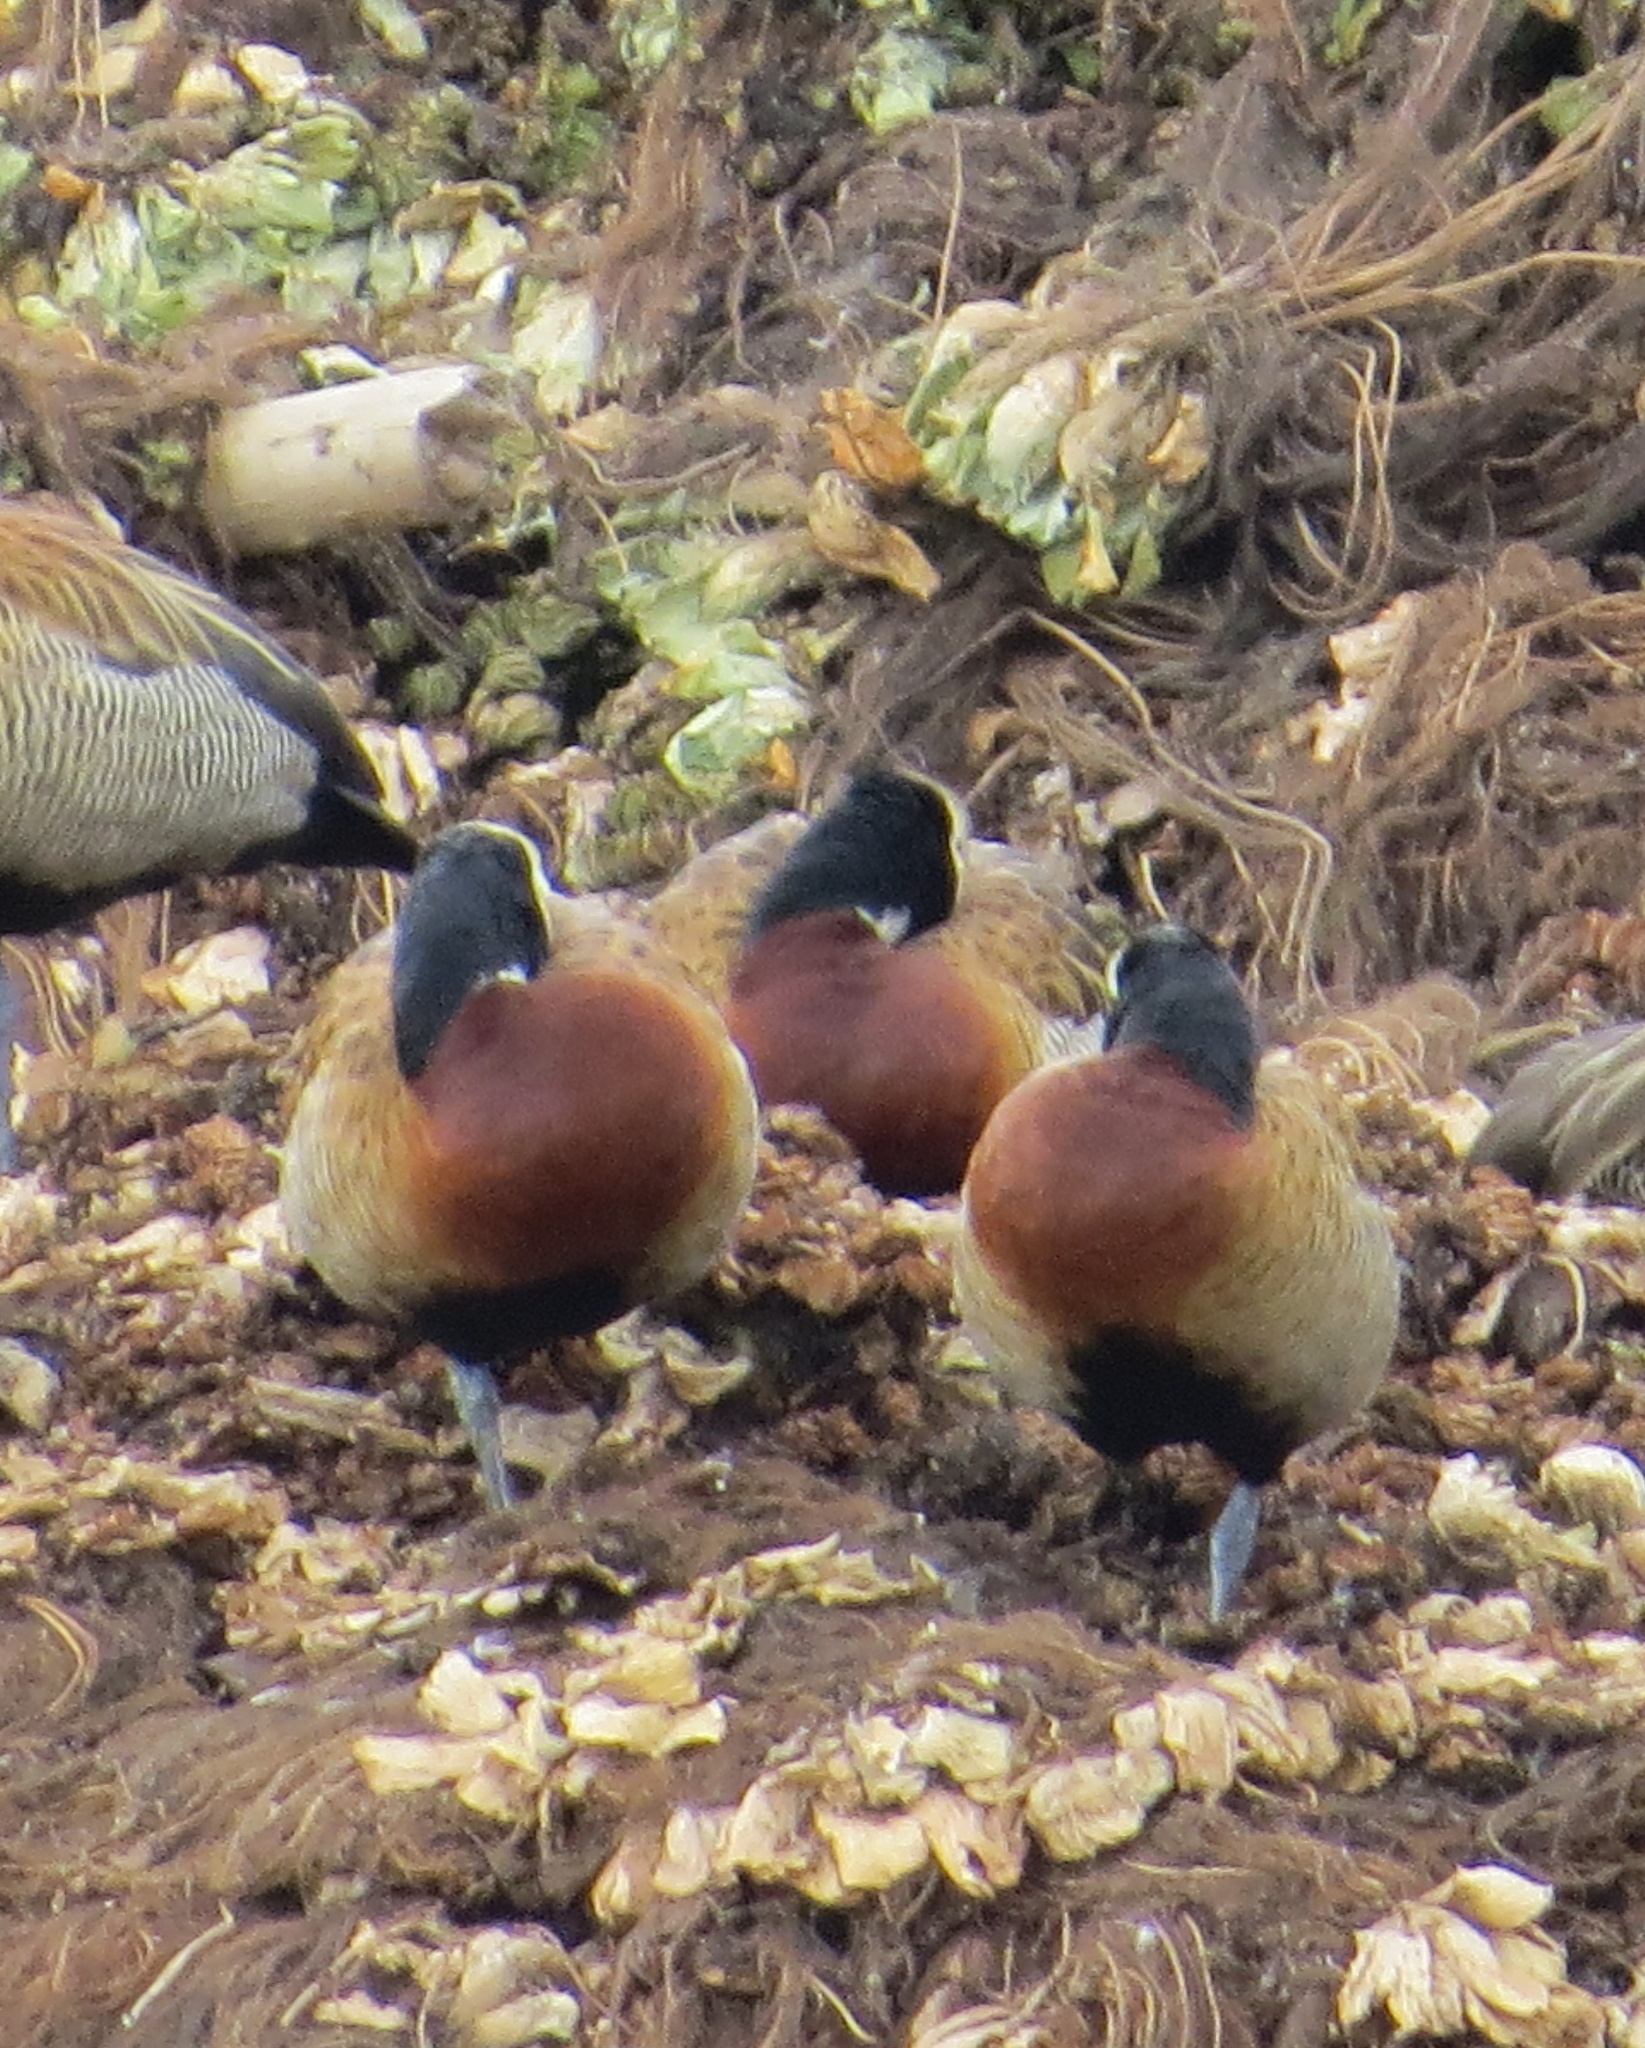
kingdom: Animalia
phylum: Chordata
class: Aves
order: Anseriformes
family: Anatidae
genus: Dendrocygna
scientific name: Dendrocygna viduata
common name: White-faced whistling duck
